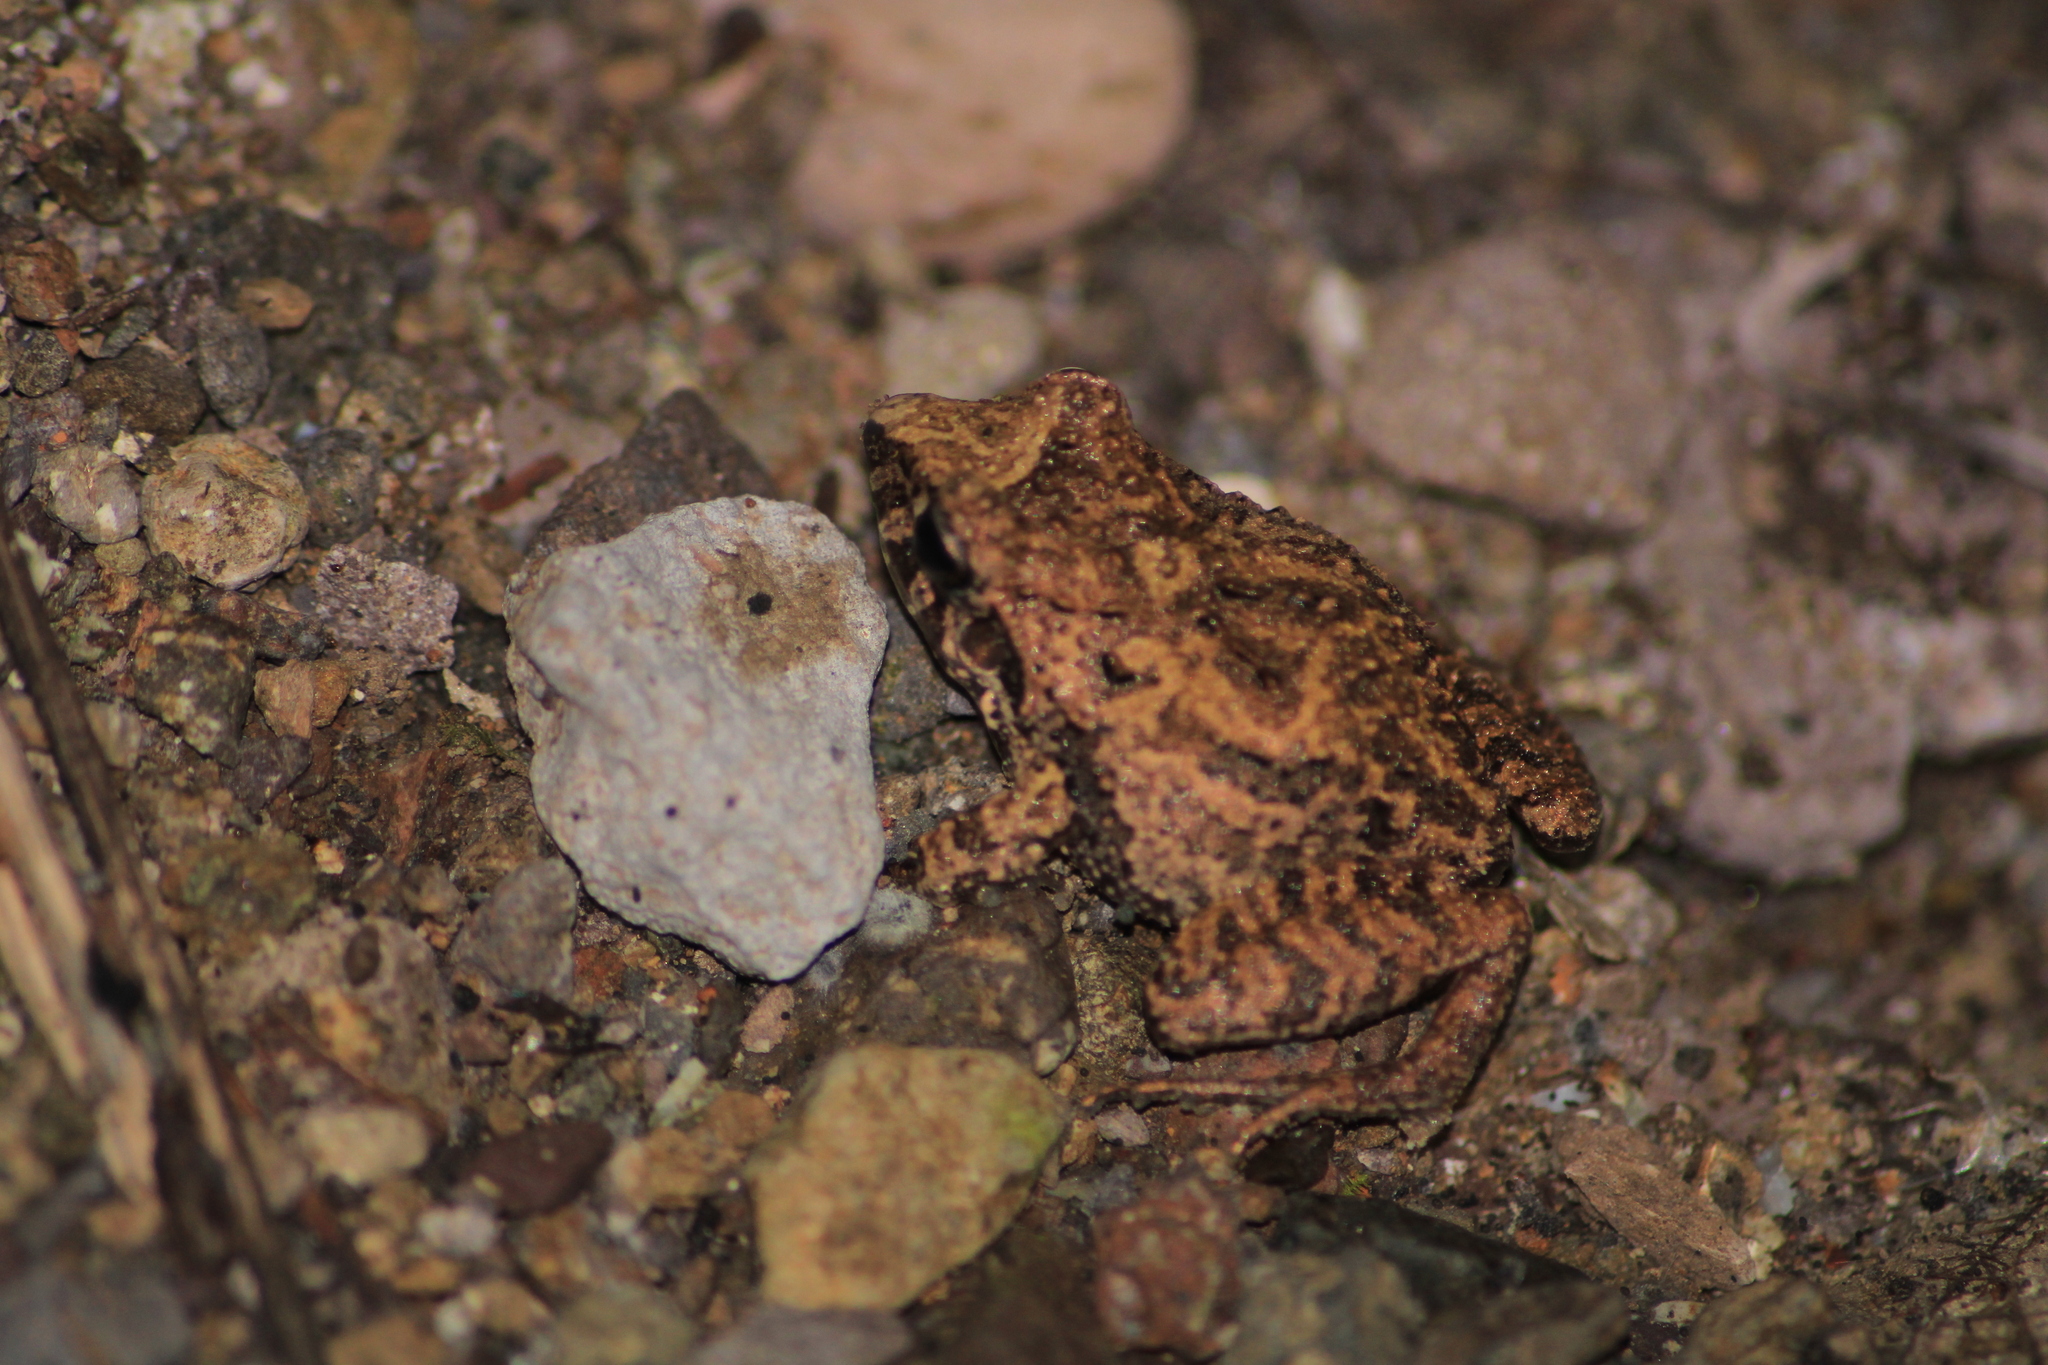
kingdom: Animalia
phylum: Chordata
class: Amphibia
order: Anura
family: Craugastoridae
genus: Craugastor
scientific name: Craugastor occidentalis
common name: Taylor's barking frog
